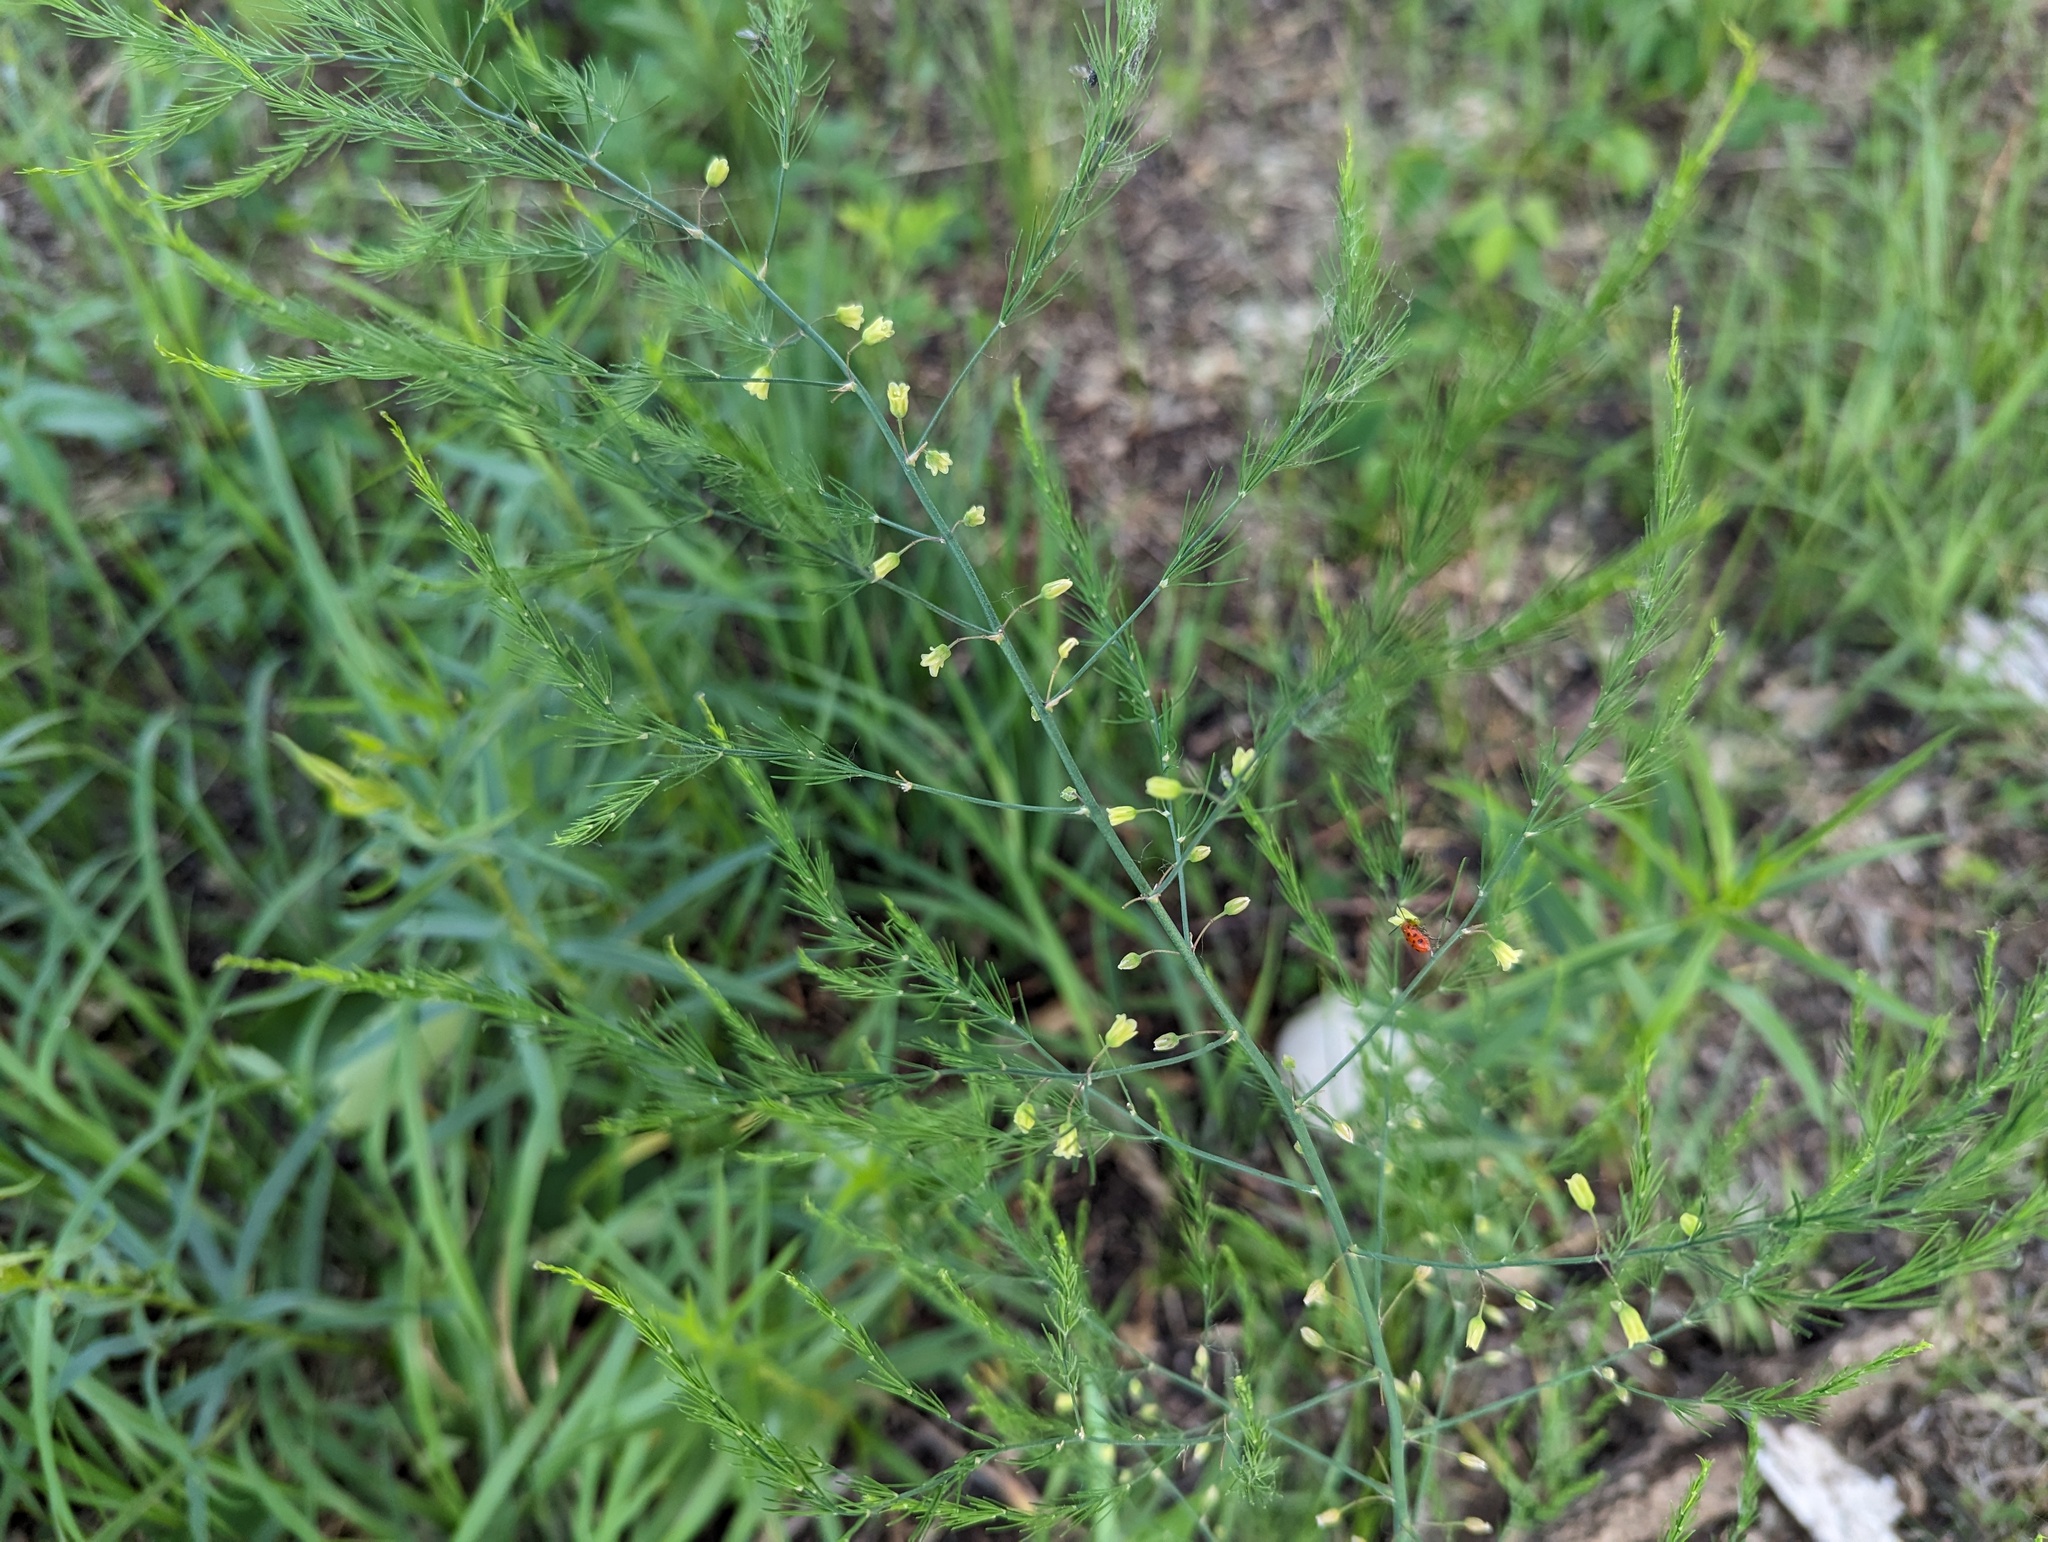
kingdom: Plantae
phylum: Tracheophyta
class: Liliopsida
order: Asparagales
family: Asparagaceae
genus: Asparagus
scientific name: Asparagus officinalis
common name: Garden asparagus
